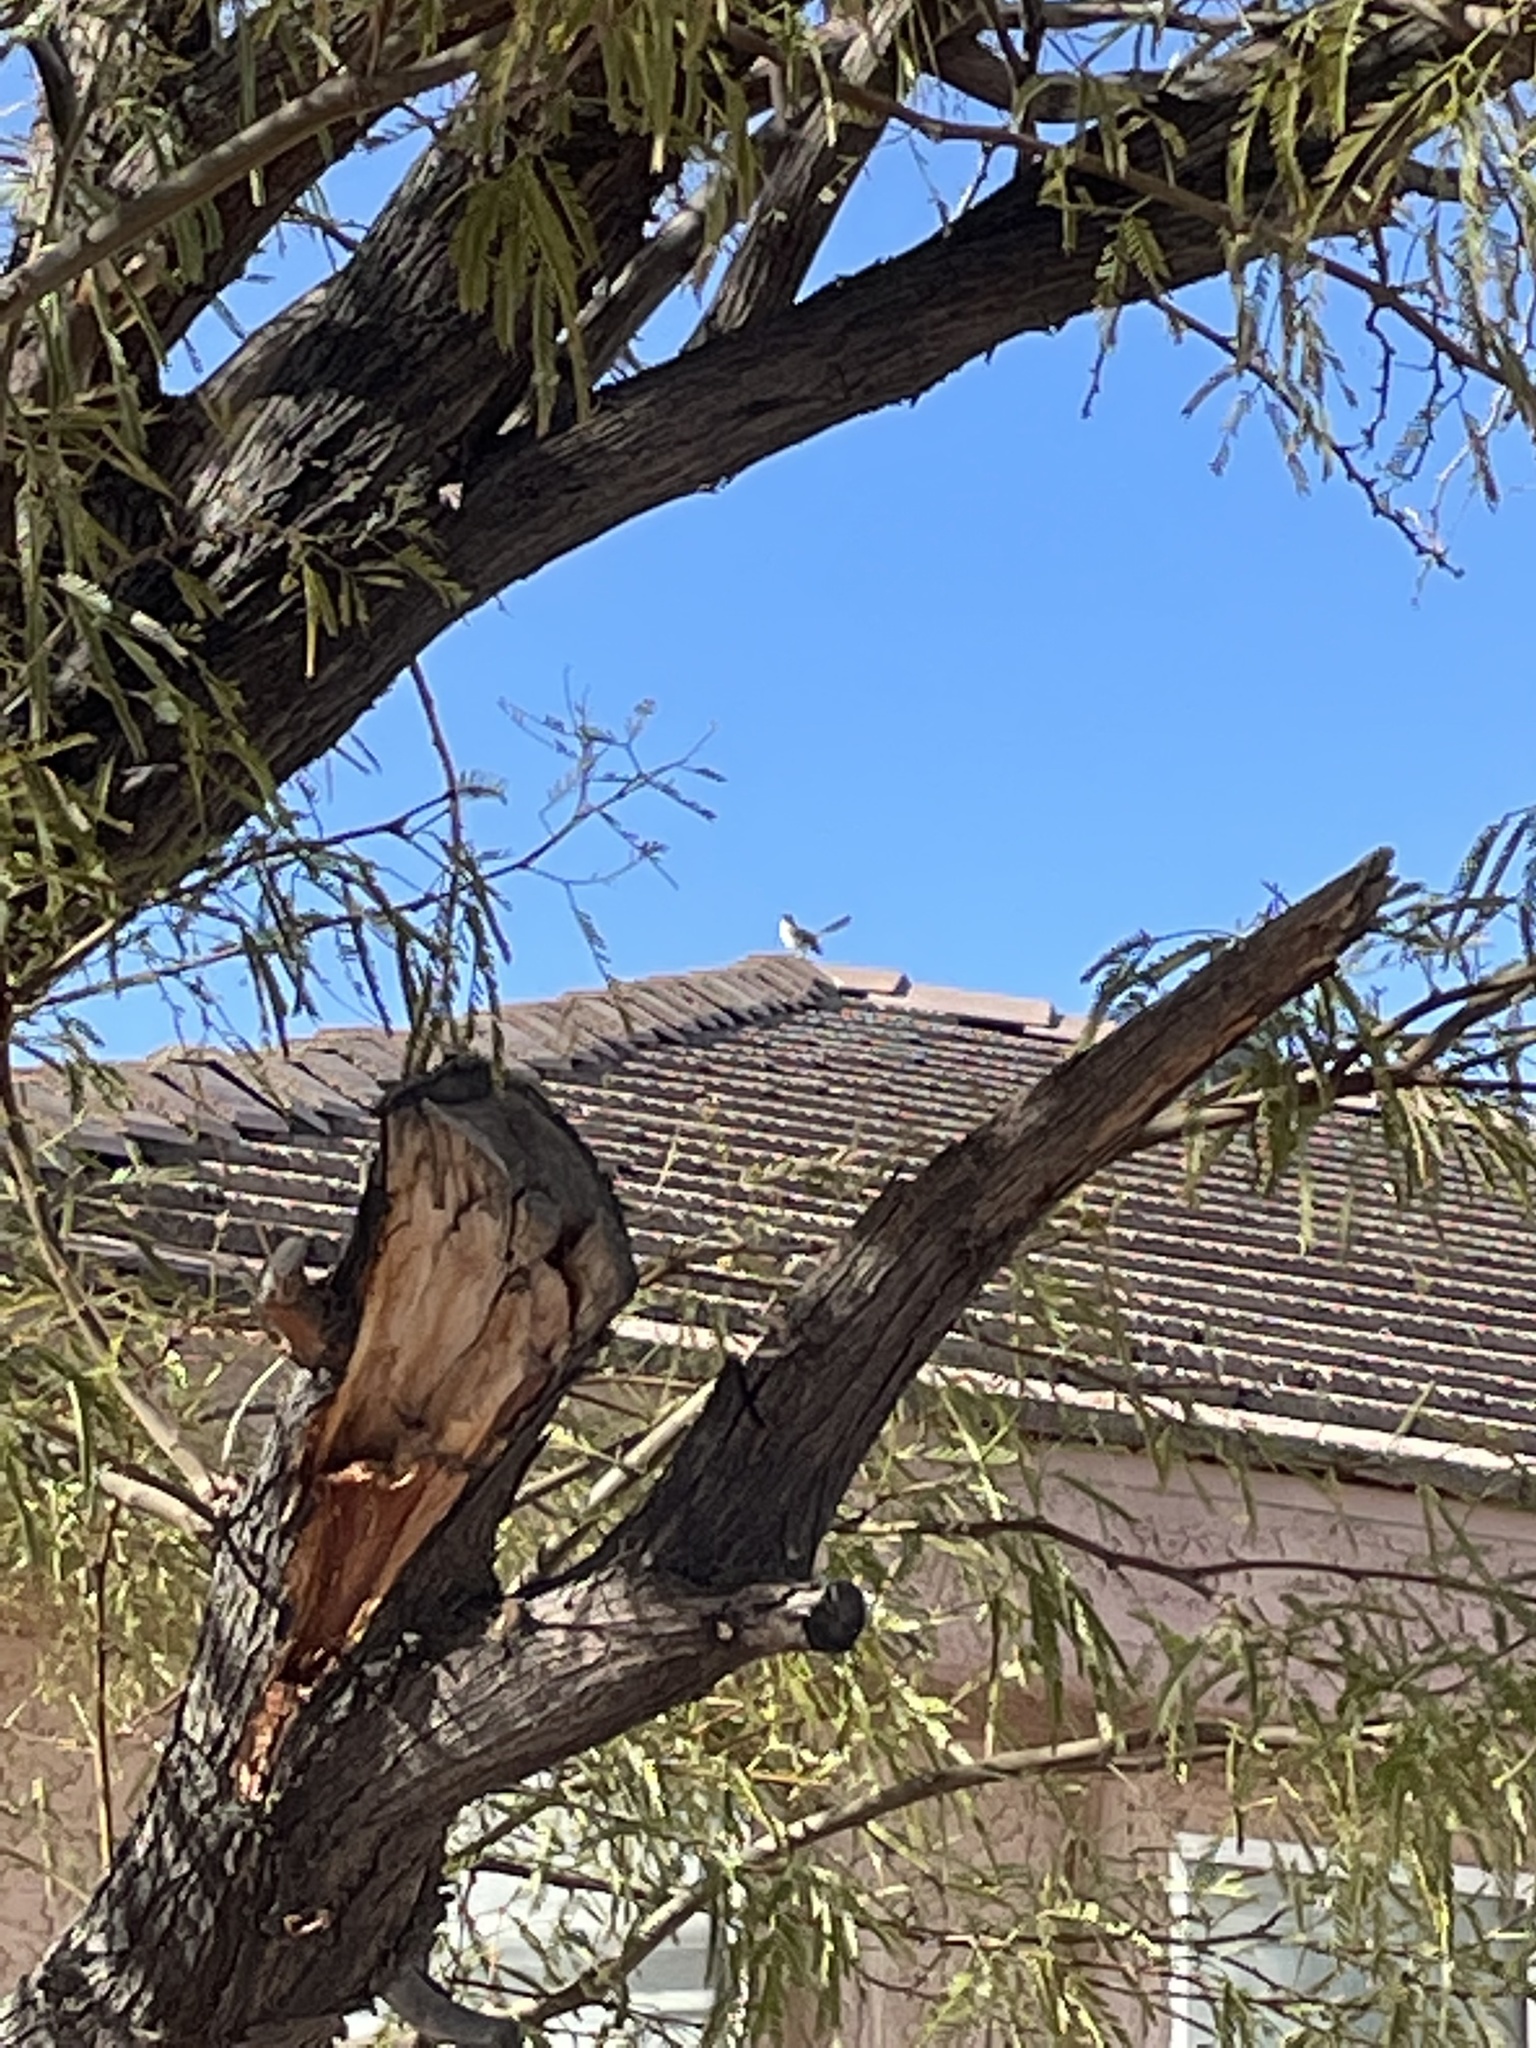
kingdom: Animalia
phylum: Chordata
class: Aves
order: Passeriformes
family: Mimidae
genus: Mimus
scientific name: Mimus polyglottos
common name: Northern mockingbird
